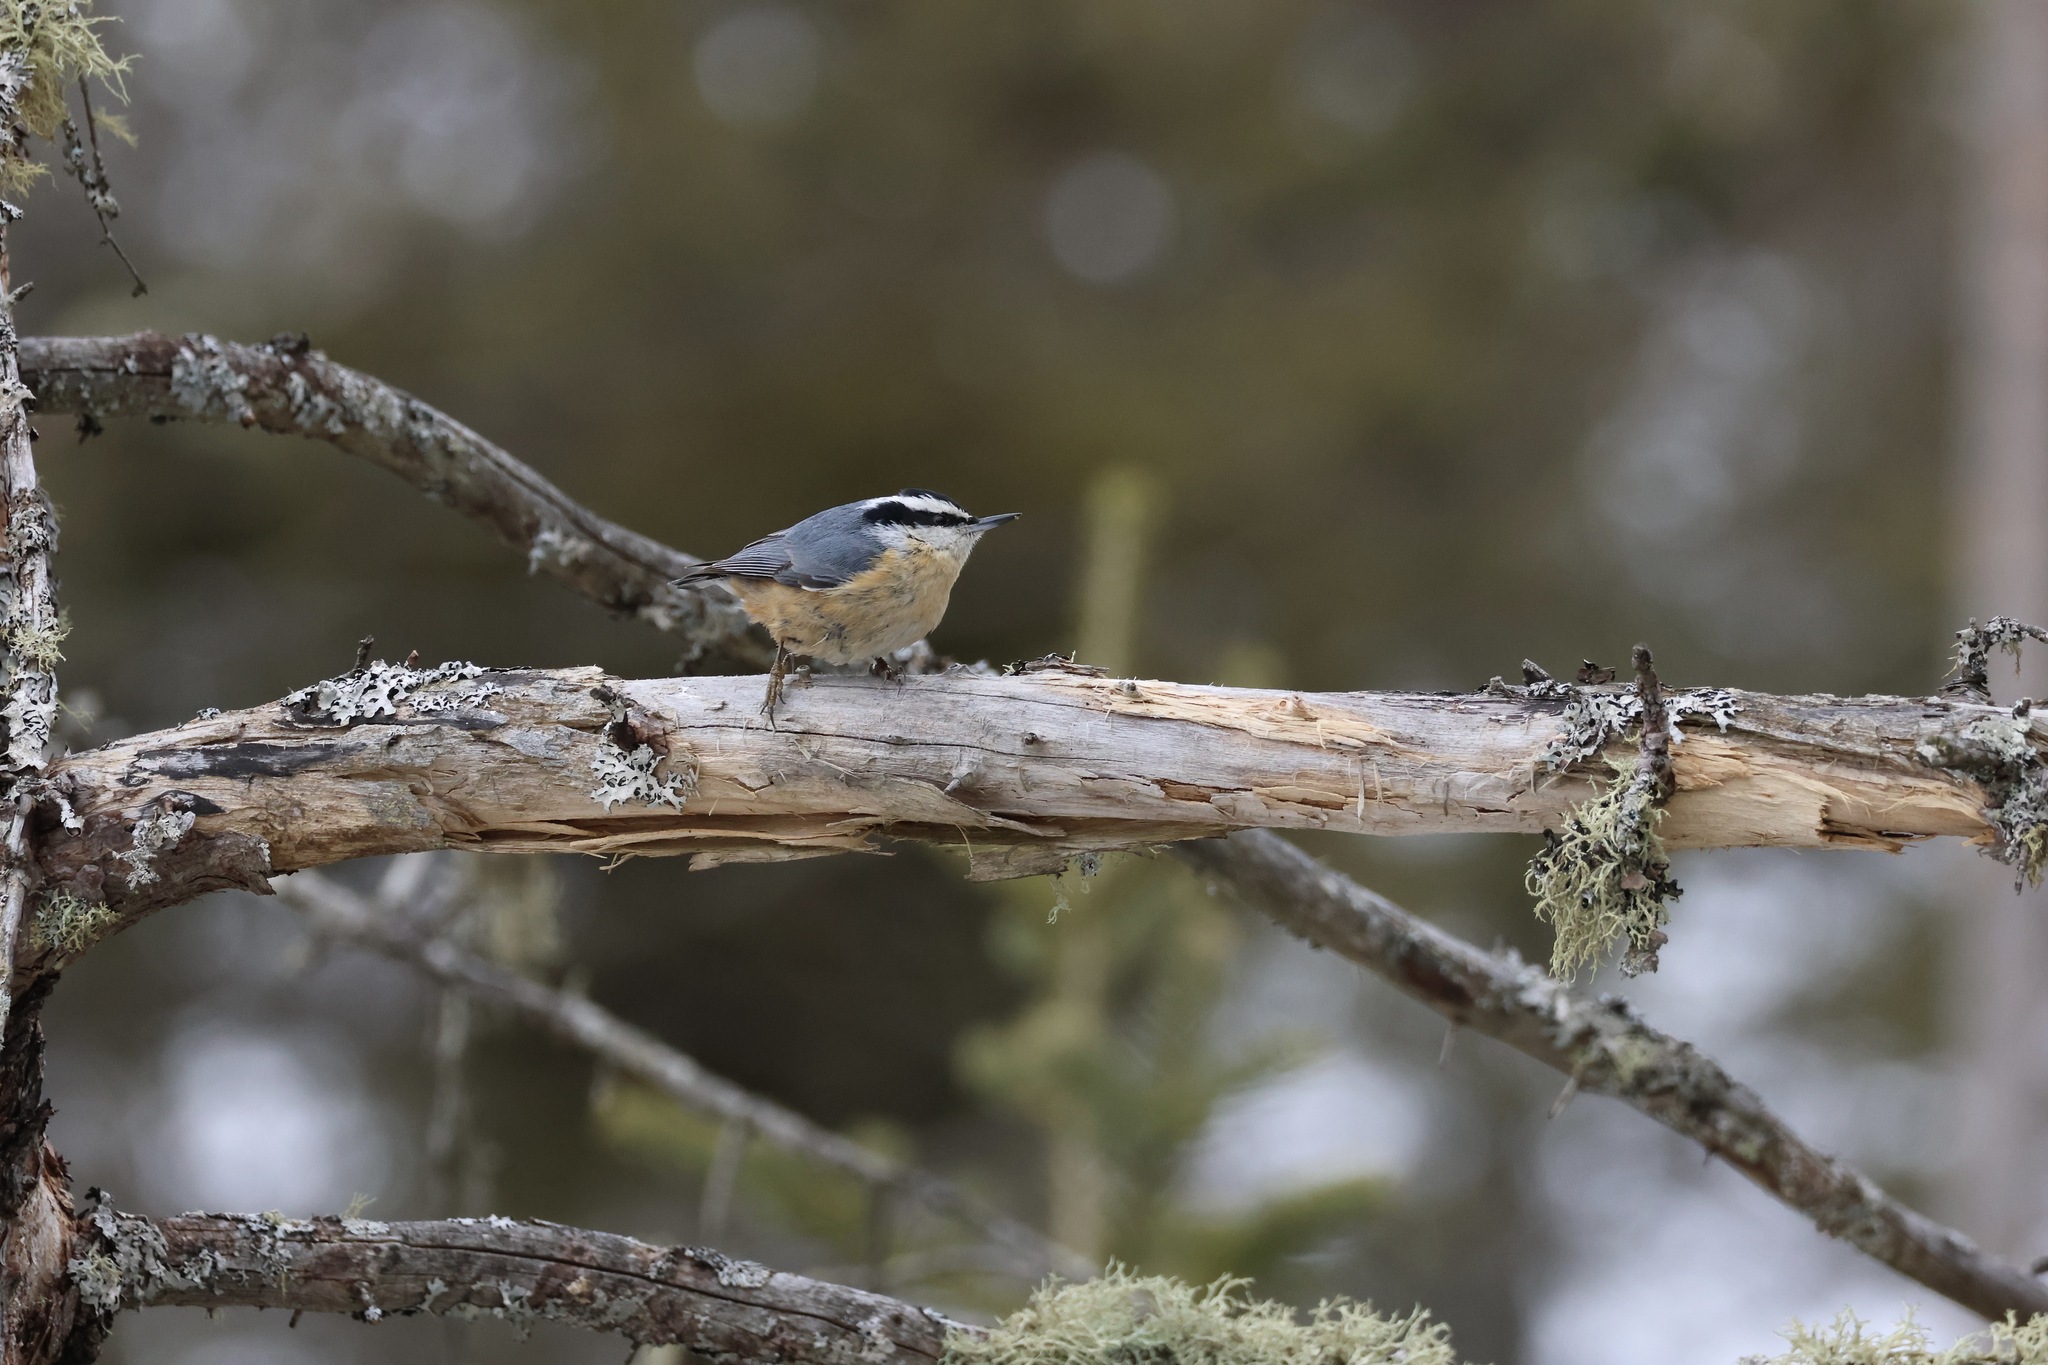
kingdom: Animalia
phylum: Chordata
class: Aves
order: Passeriformes
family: Sittidae
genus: Sitta
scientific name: Sitta canadensis
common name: Red-breasted nuthatch
